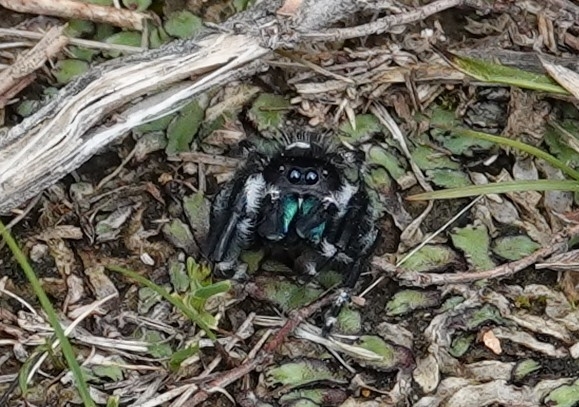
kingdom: Animalia
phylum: Arthropoda
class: Arachnida
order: Araneae
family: Salticidae
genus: Phidippus
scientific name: Phidippus audax
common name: Bold jumper
